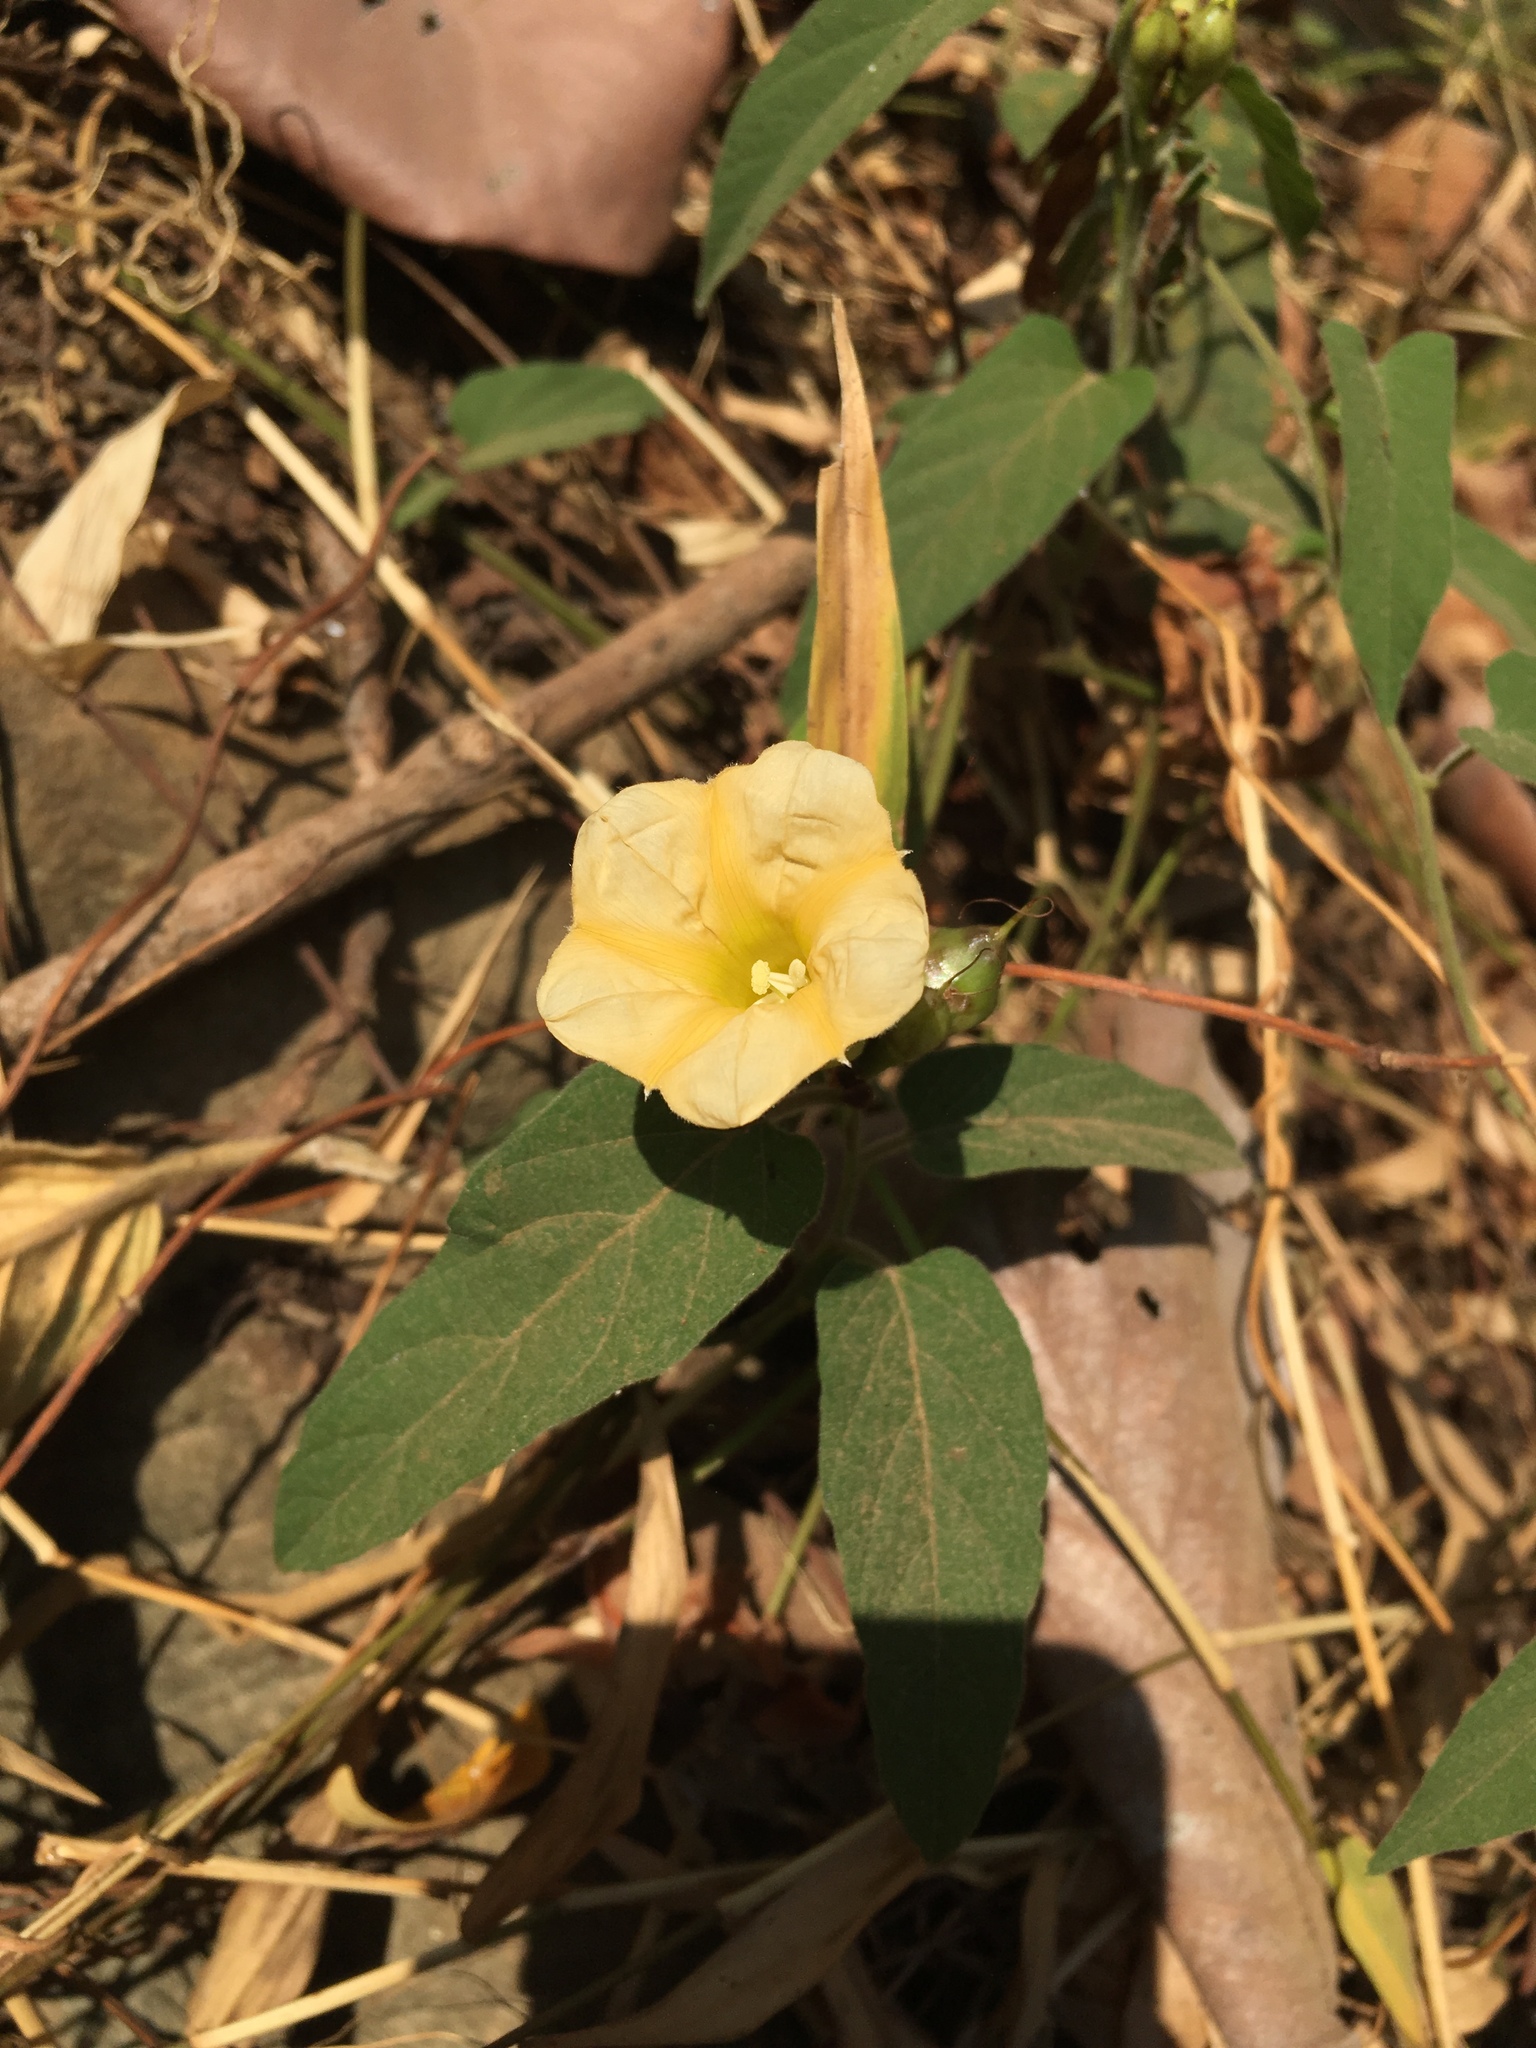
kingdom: Plantae
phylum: Tracheophyta
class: Magnoliopsida
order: Solanales
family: Convolvulaceae
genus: Camonea
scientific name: Camonea pilosa
